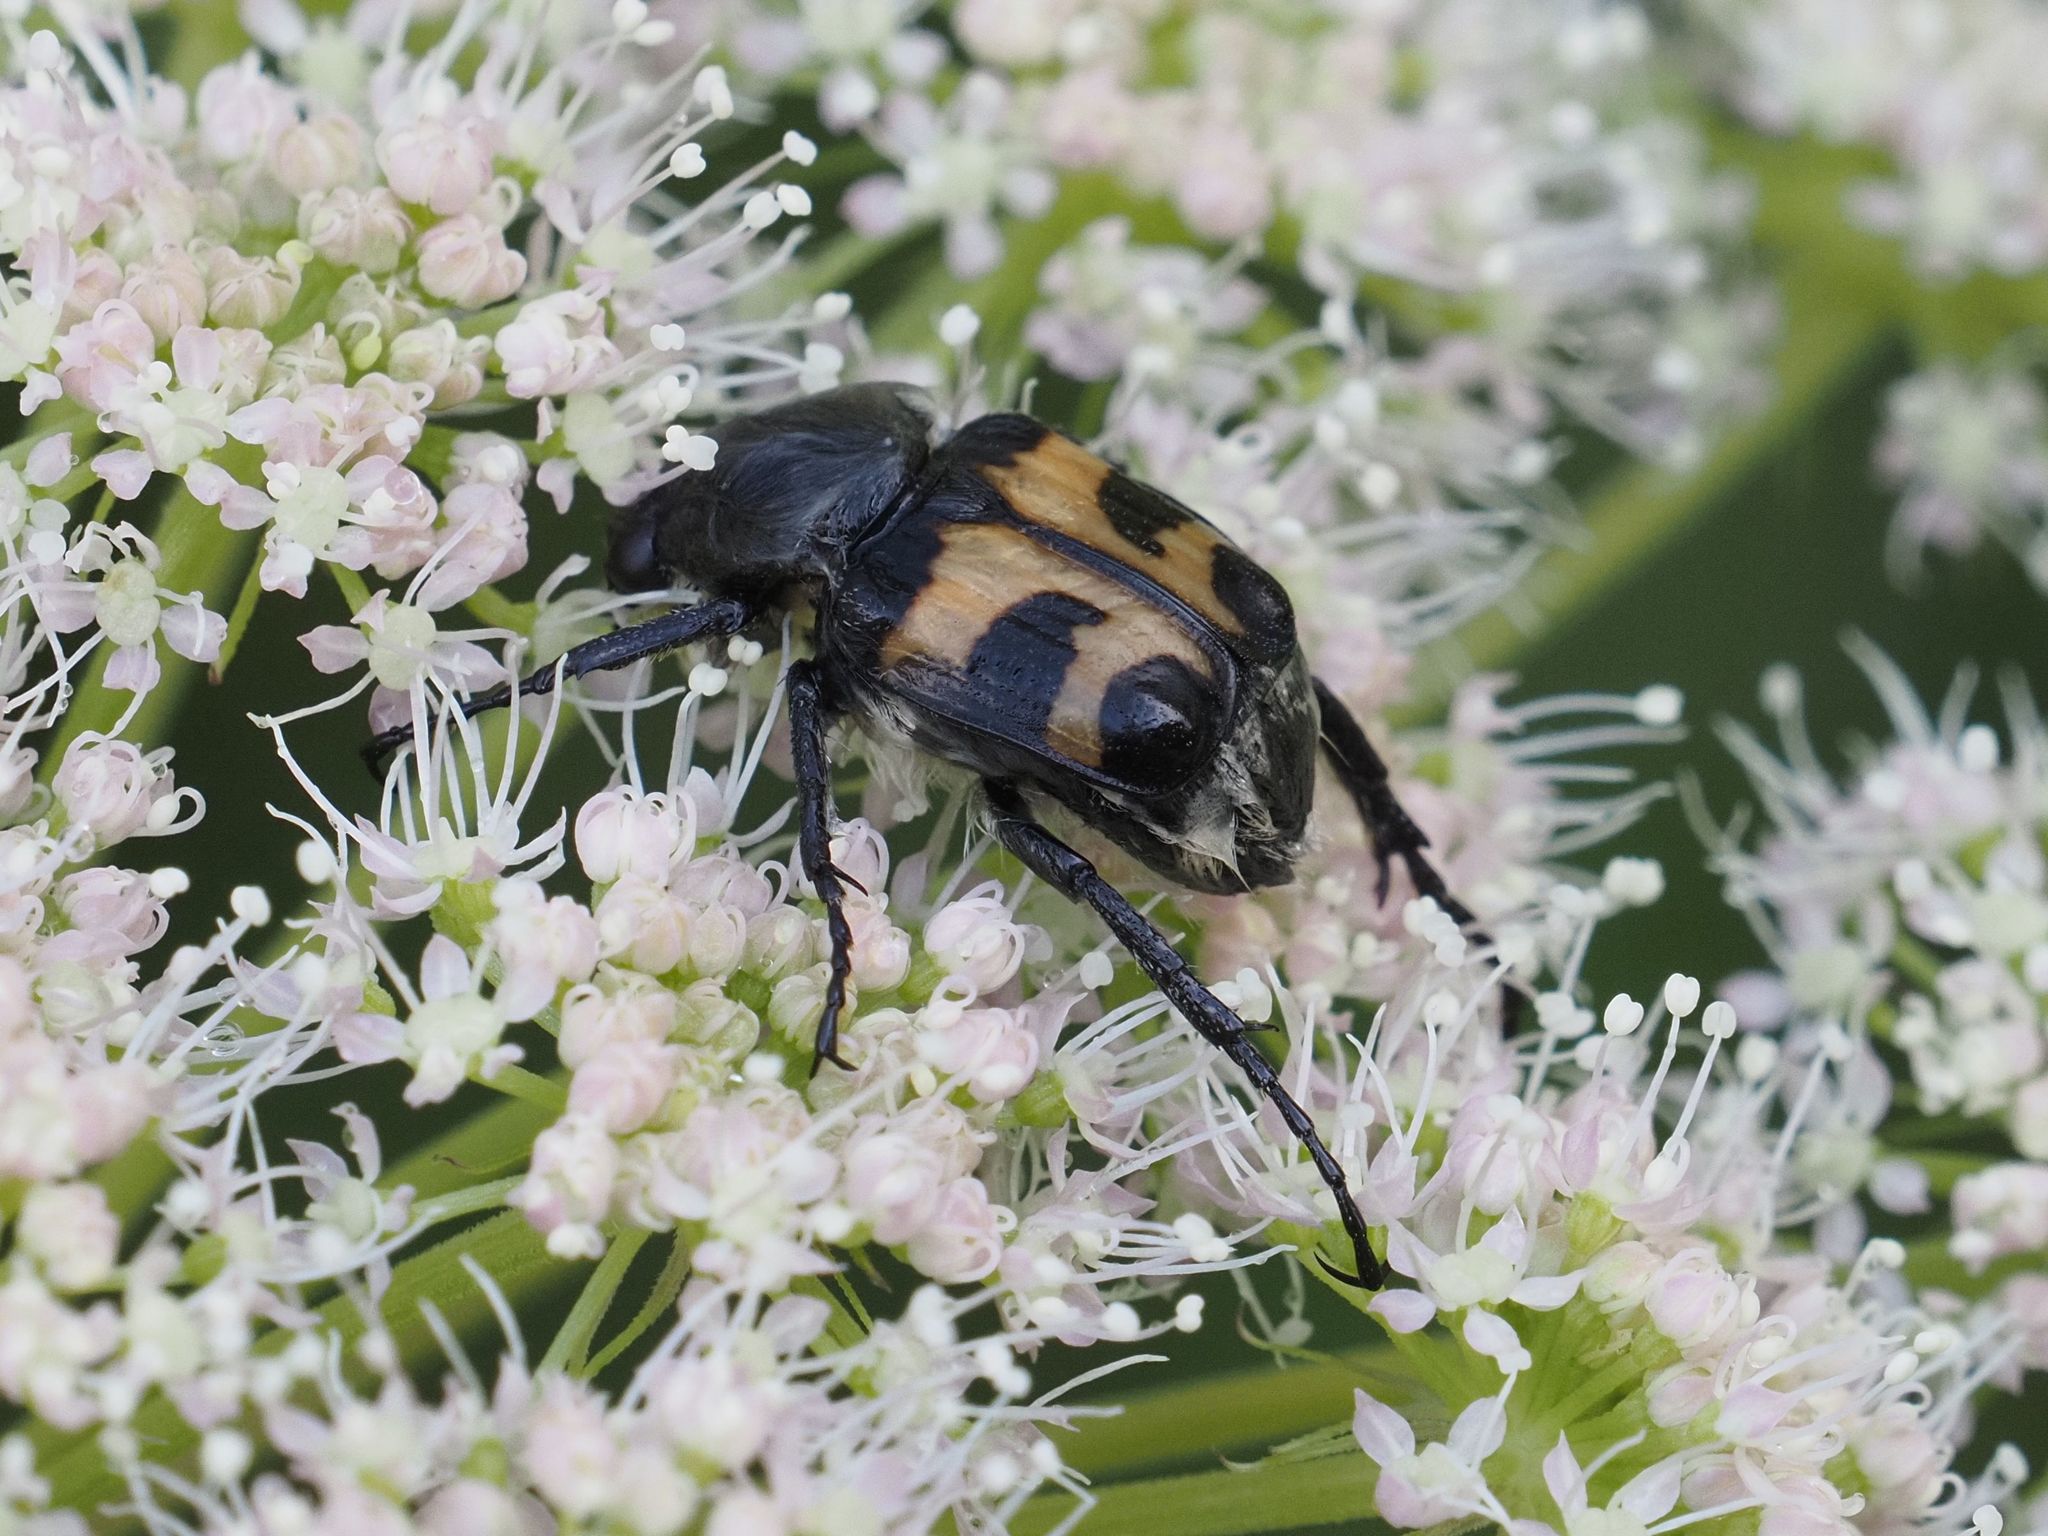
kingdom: Animalia
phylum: Arthropoda
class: Insecta
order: Coleoptera
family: Scarabaeidae
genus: Trichius
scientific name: Trichius fasciatus
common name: Bee beetle
